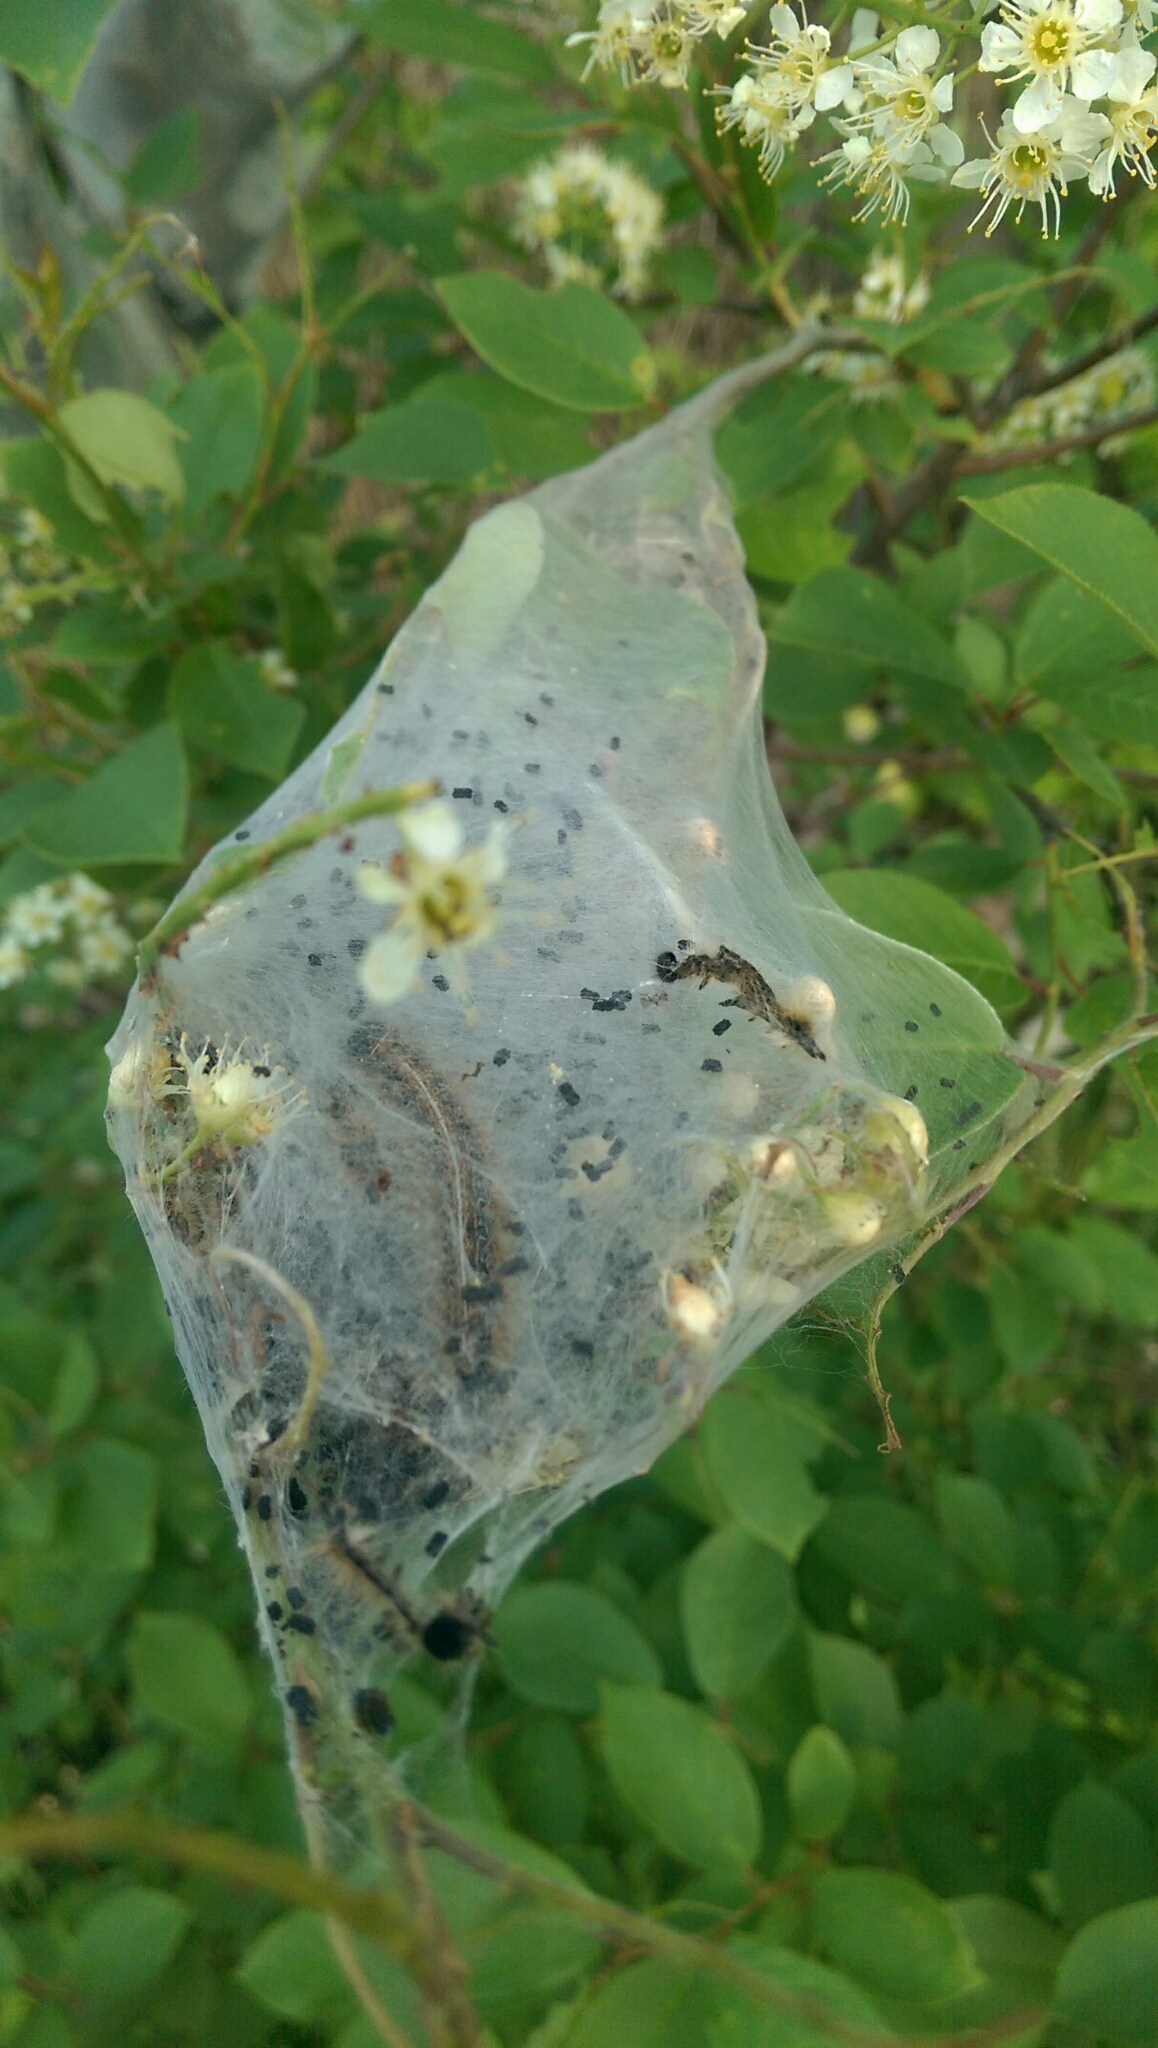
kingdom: Animalia
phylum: Arthropoda
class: Insecta
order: Lepidoptera
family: Lasiocampidae
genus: Malacosoma
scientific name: Malacosoma americana
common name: Eastern tent caterpillar moth
